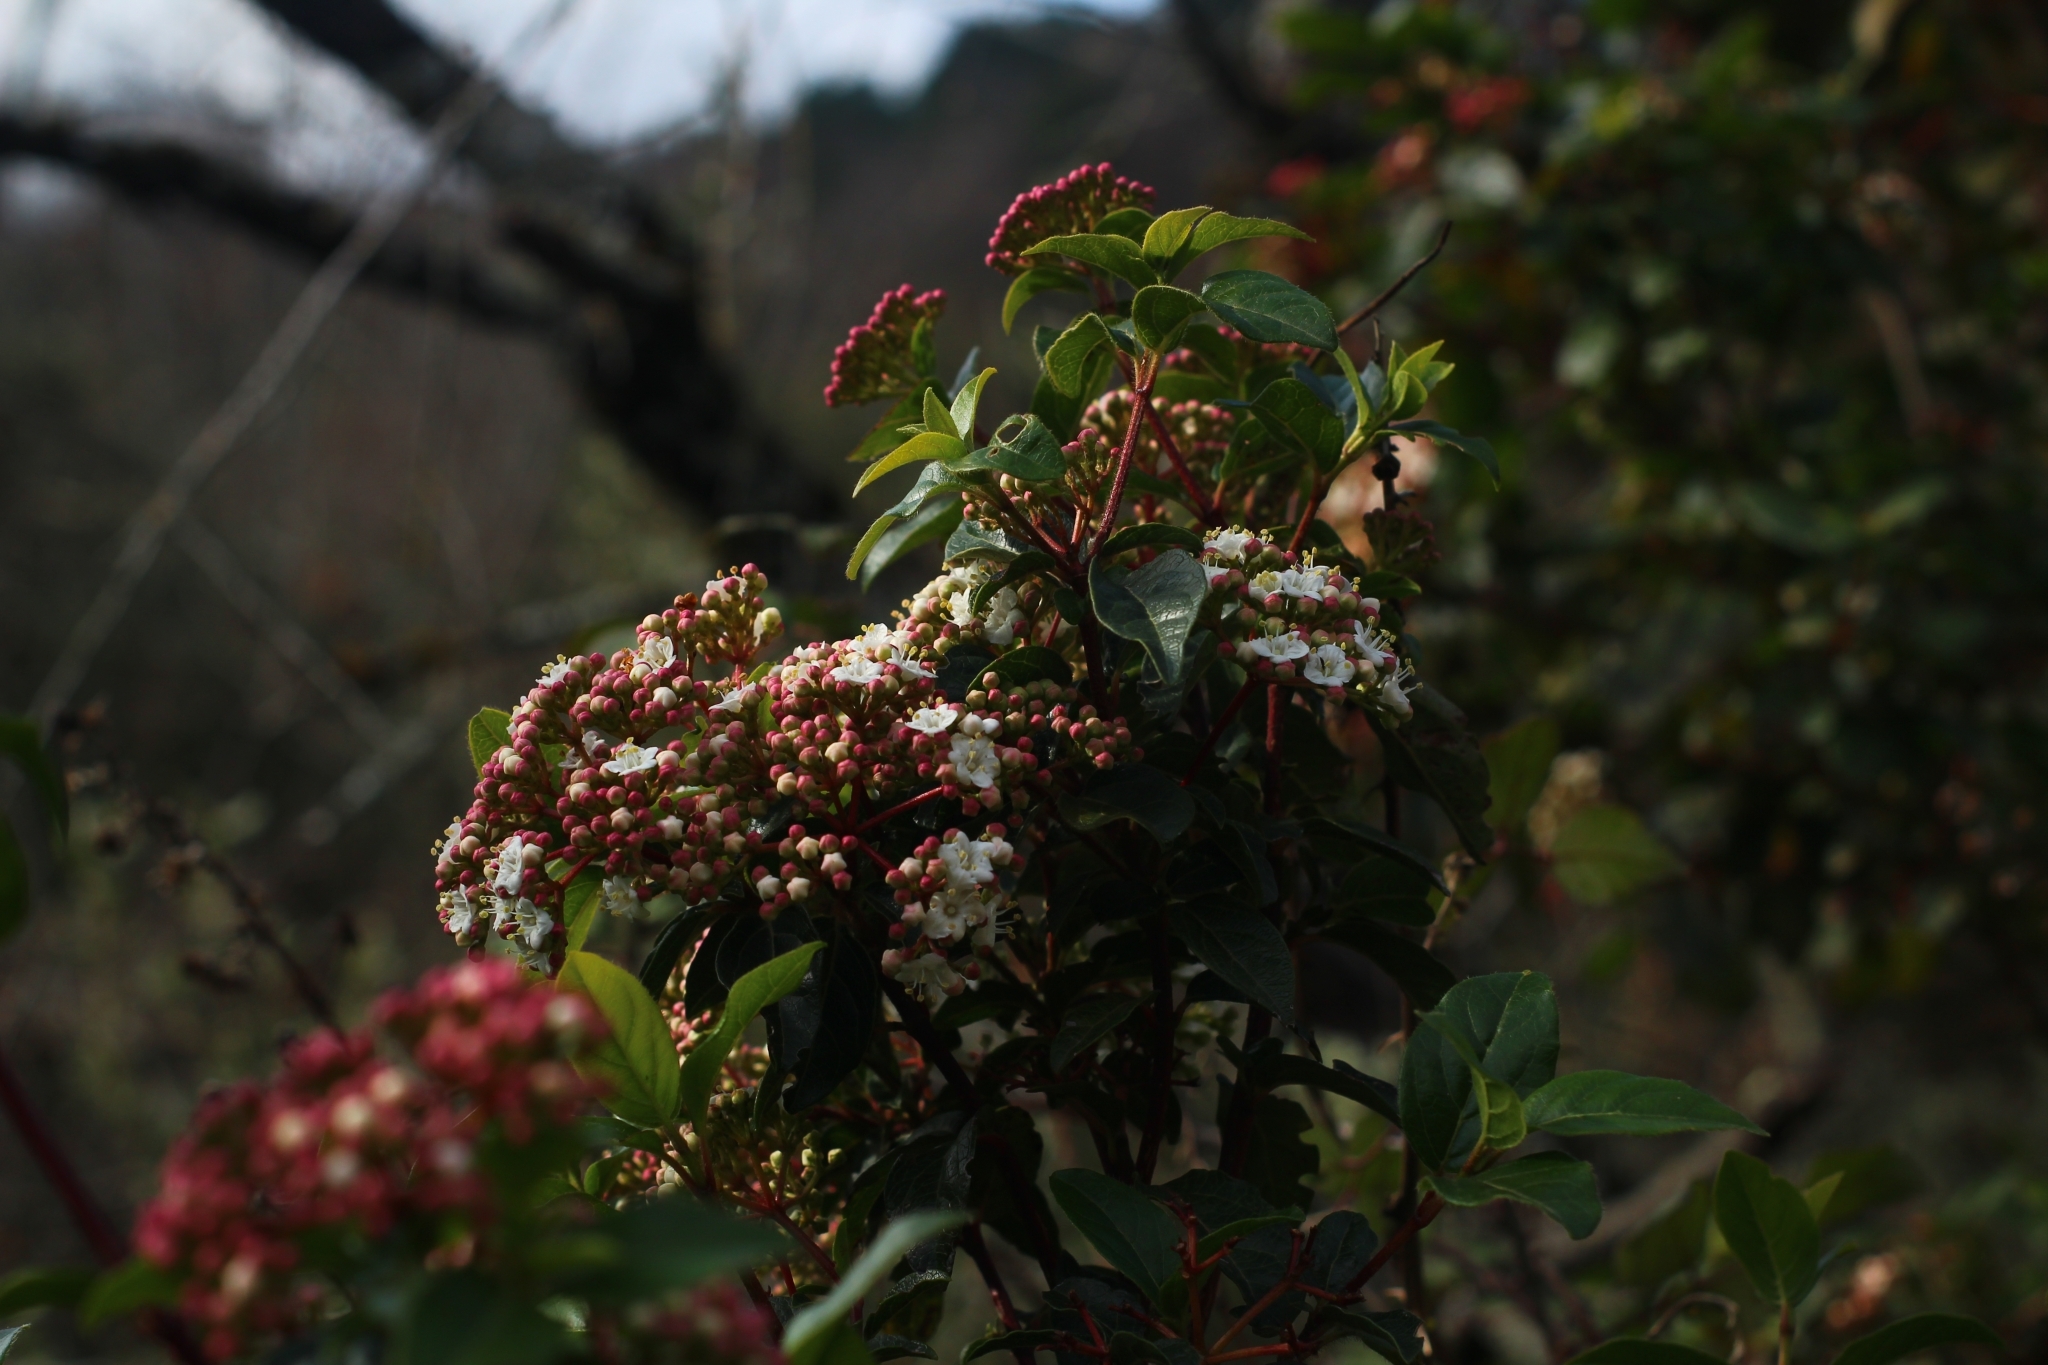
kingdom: Plantae
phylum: Tracheophyta
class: Magnoliopsida
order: Dipsacales
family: Viburnaceae
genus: Viburnum
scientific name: Viburnum tinus
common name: Laurustinus
